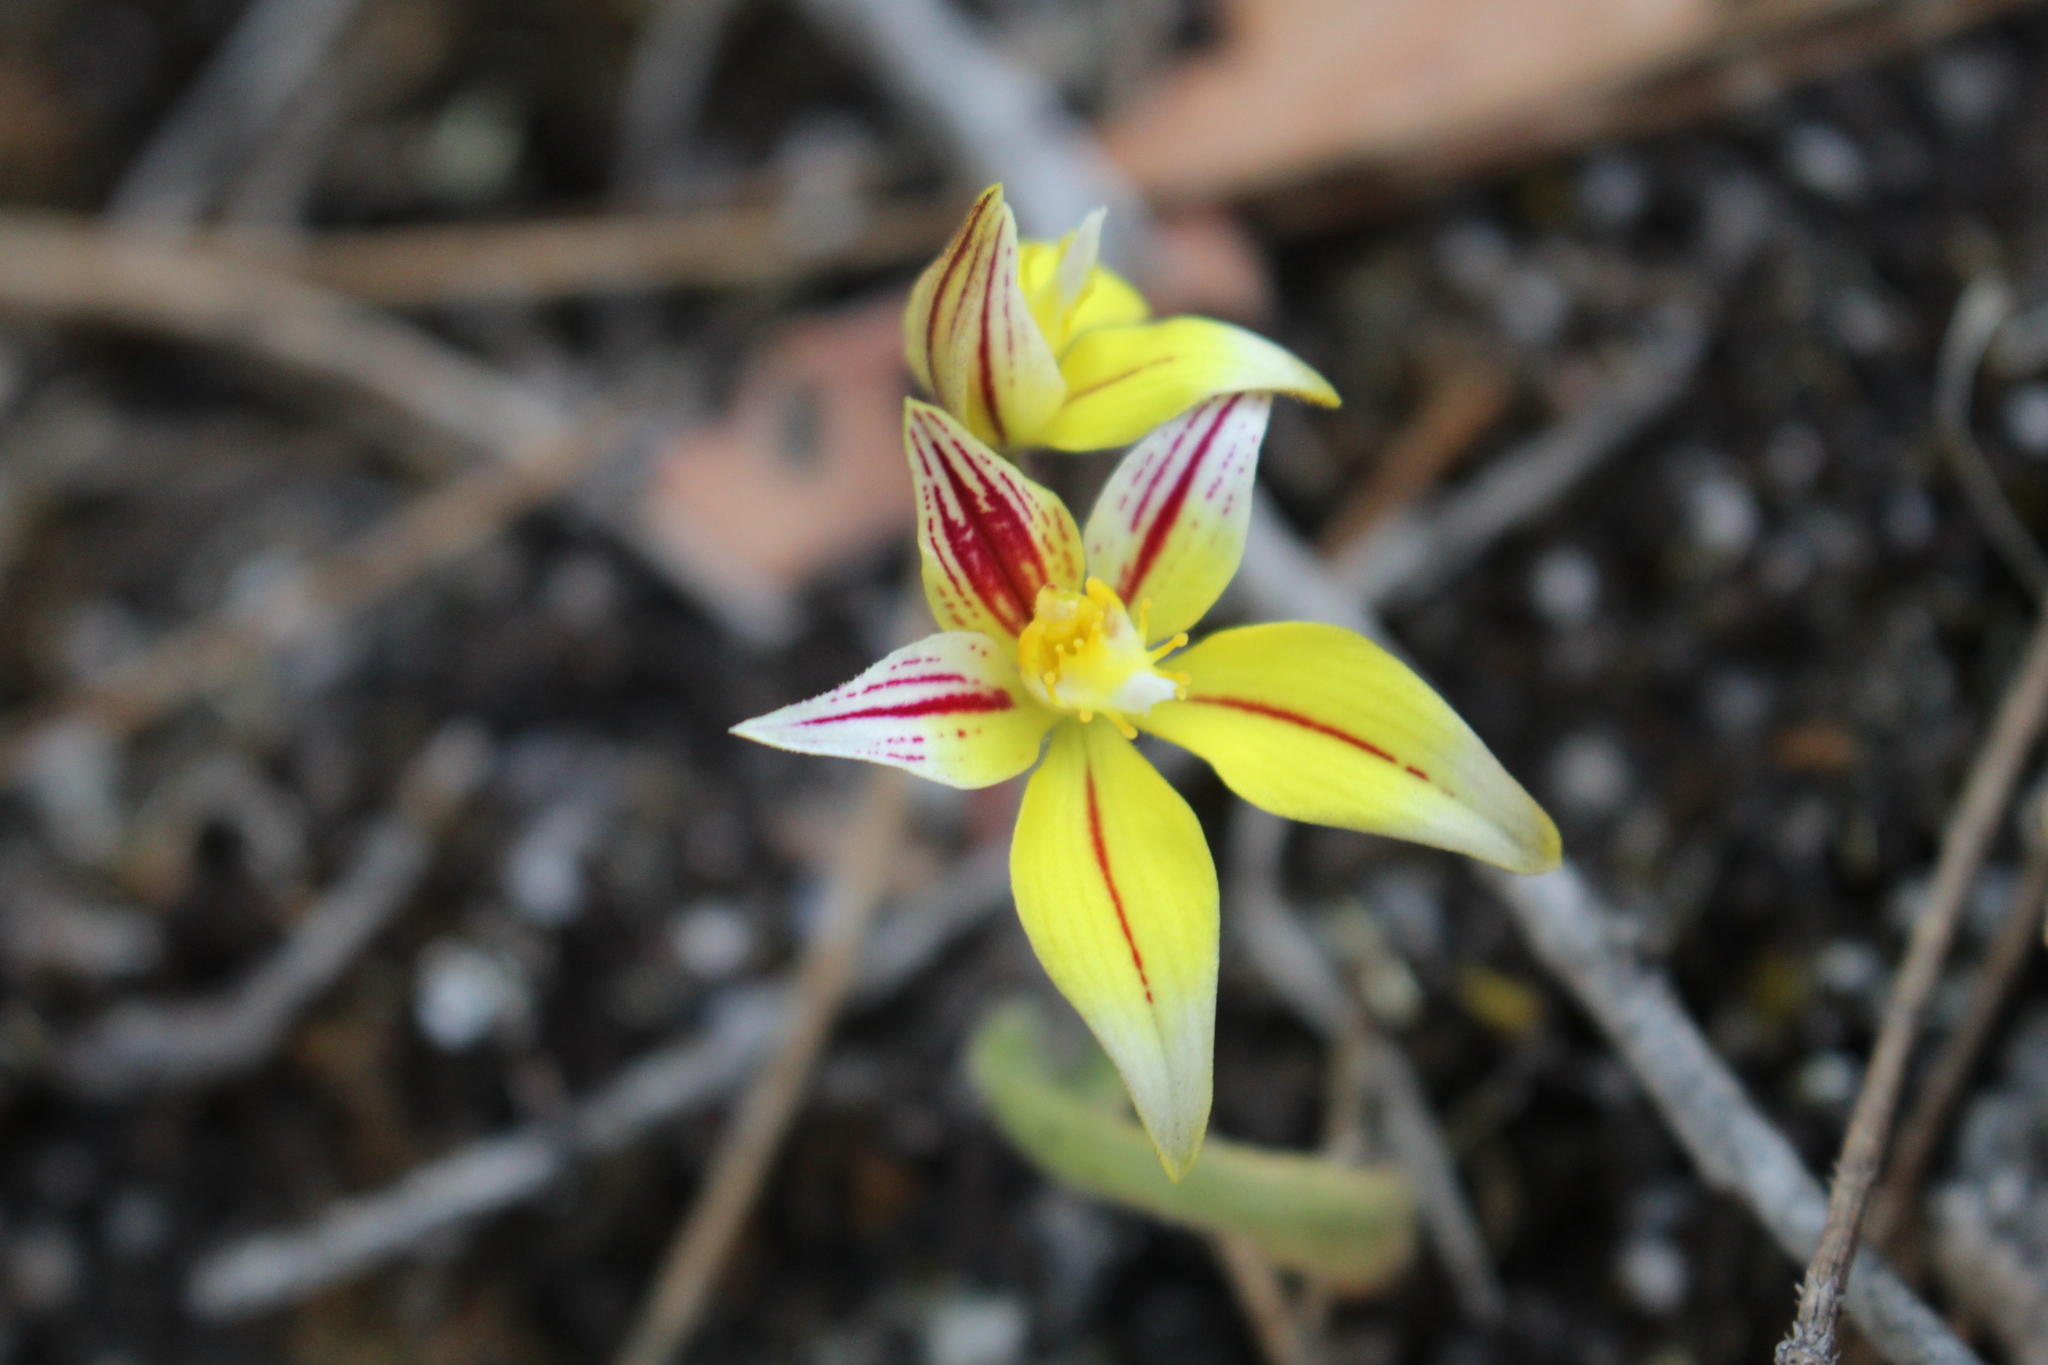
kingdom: Plantae
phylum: Tracheophyta
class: Liliopsida
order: Asparagales
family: Orchidaceae
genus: Caladenia
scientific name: Caladenia flava
